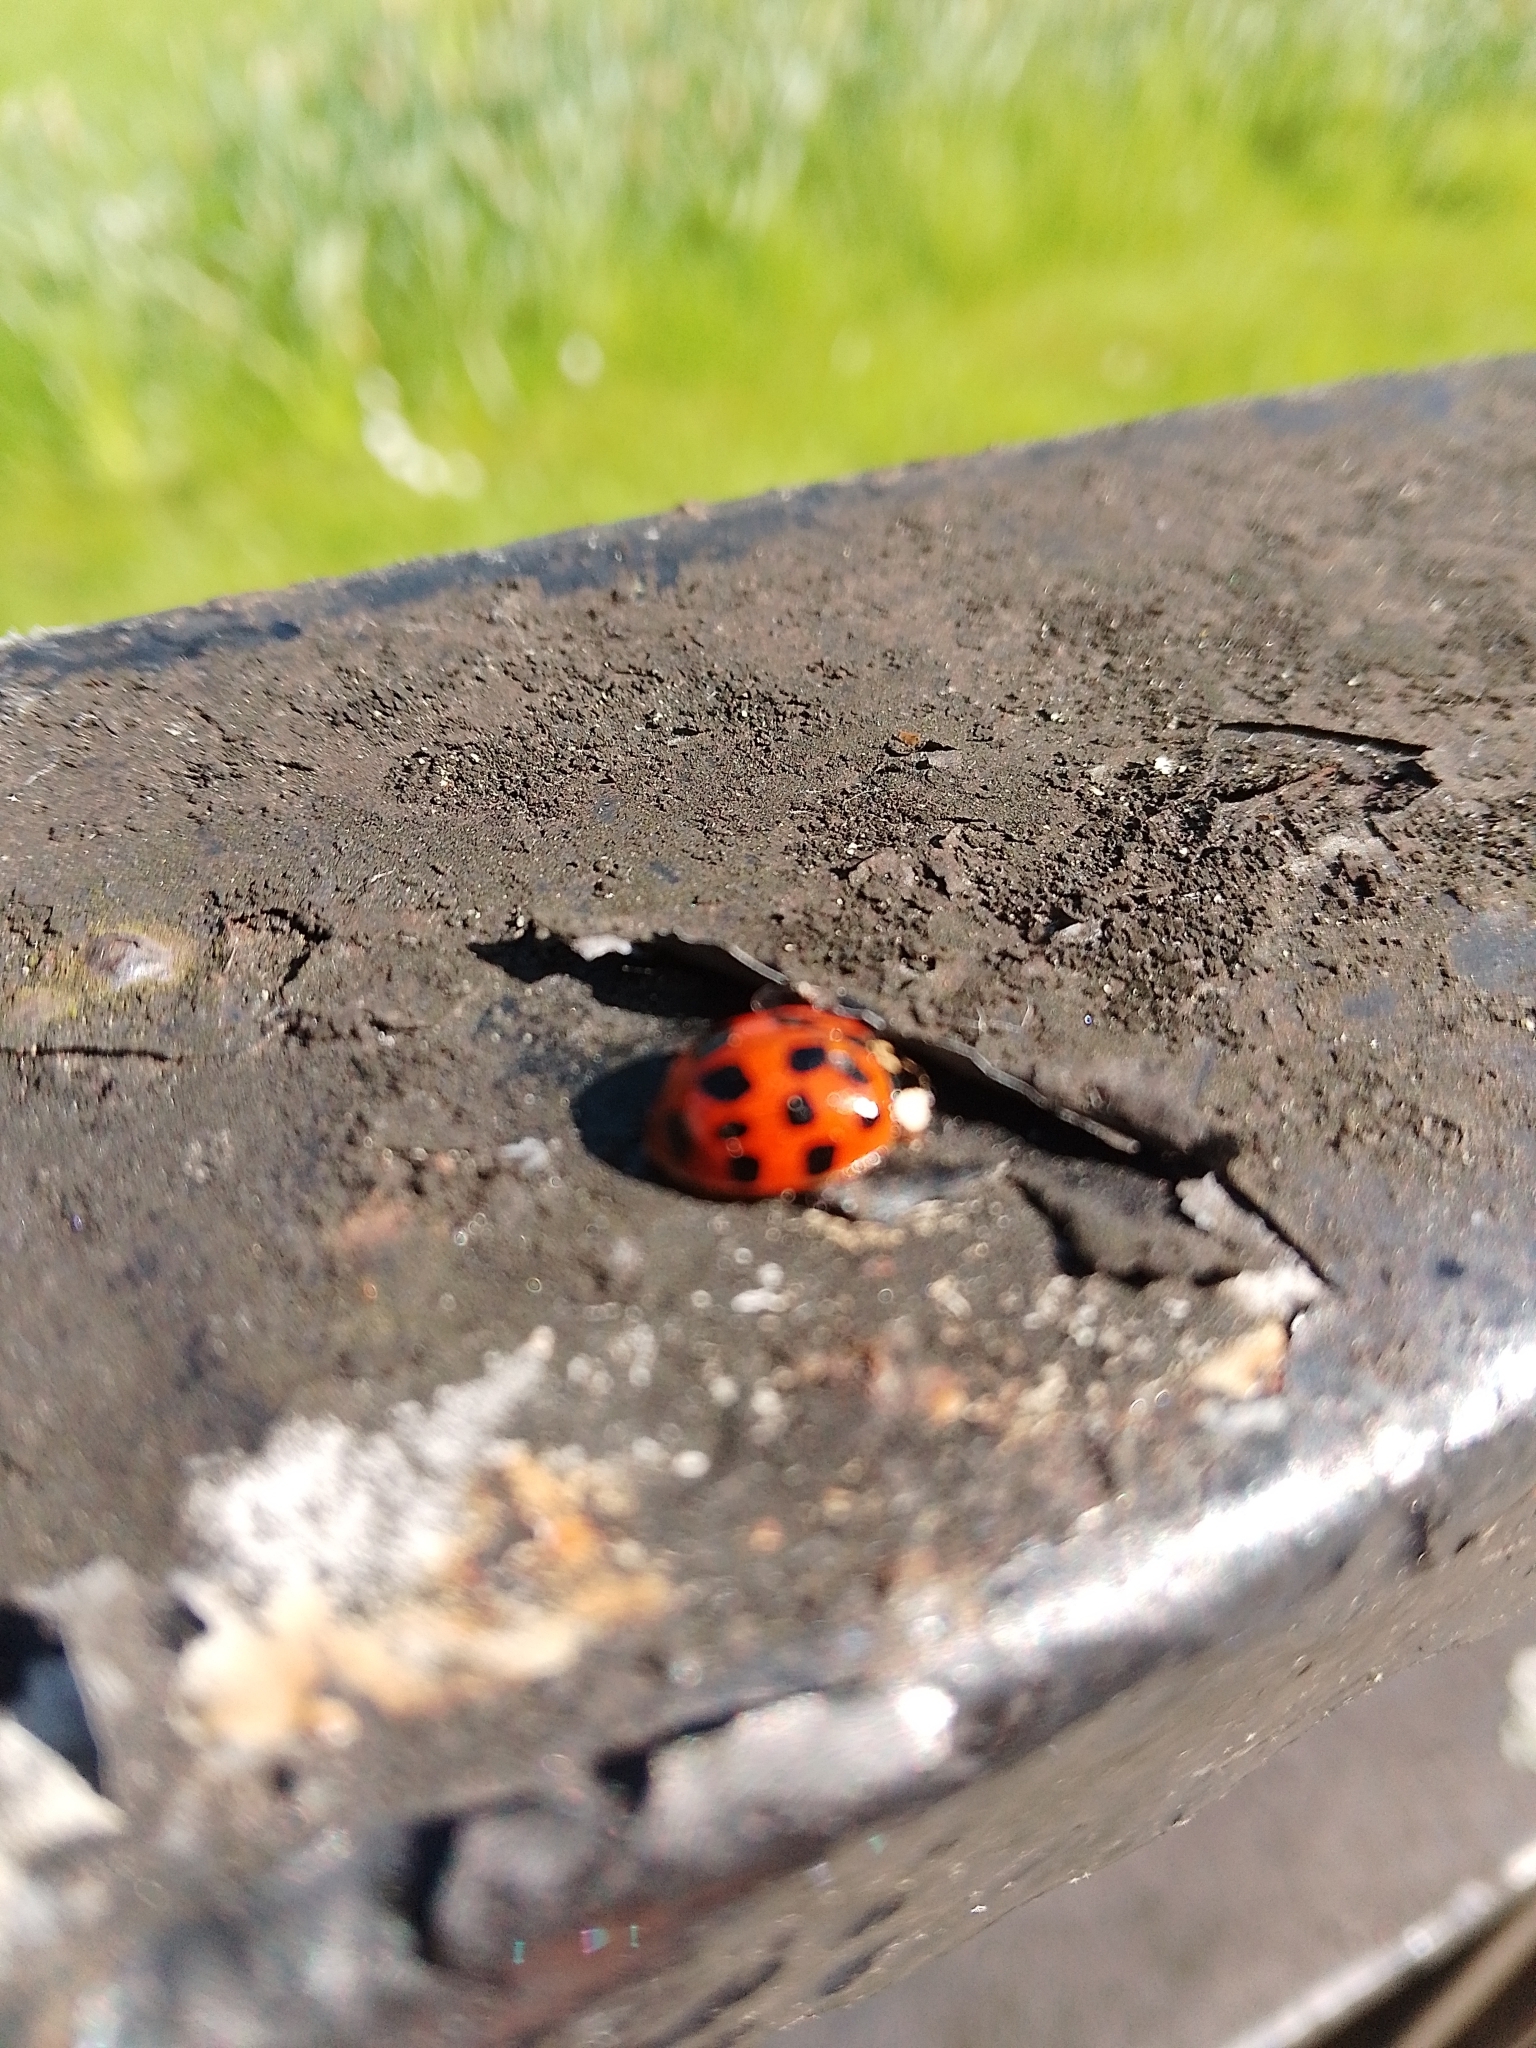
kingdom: Animalia
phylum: Arthropoda
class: Insecta
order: Coleoptera
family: Coccinellidae
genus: Harmonia
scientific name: Harmonia axyridis
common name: Harlequin ladybird
